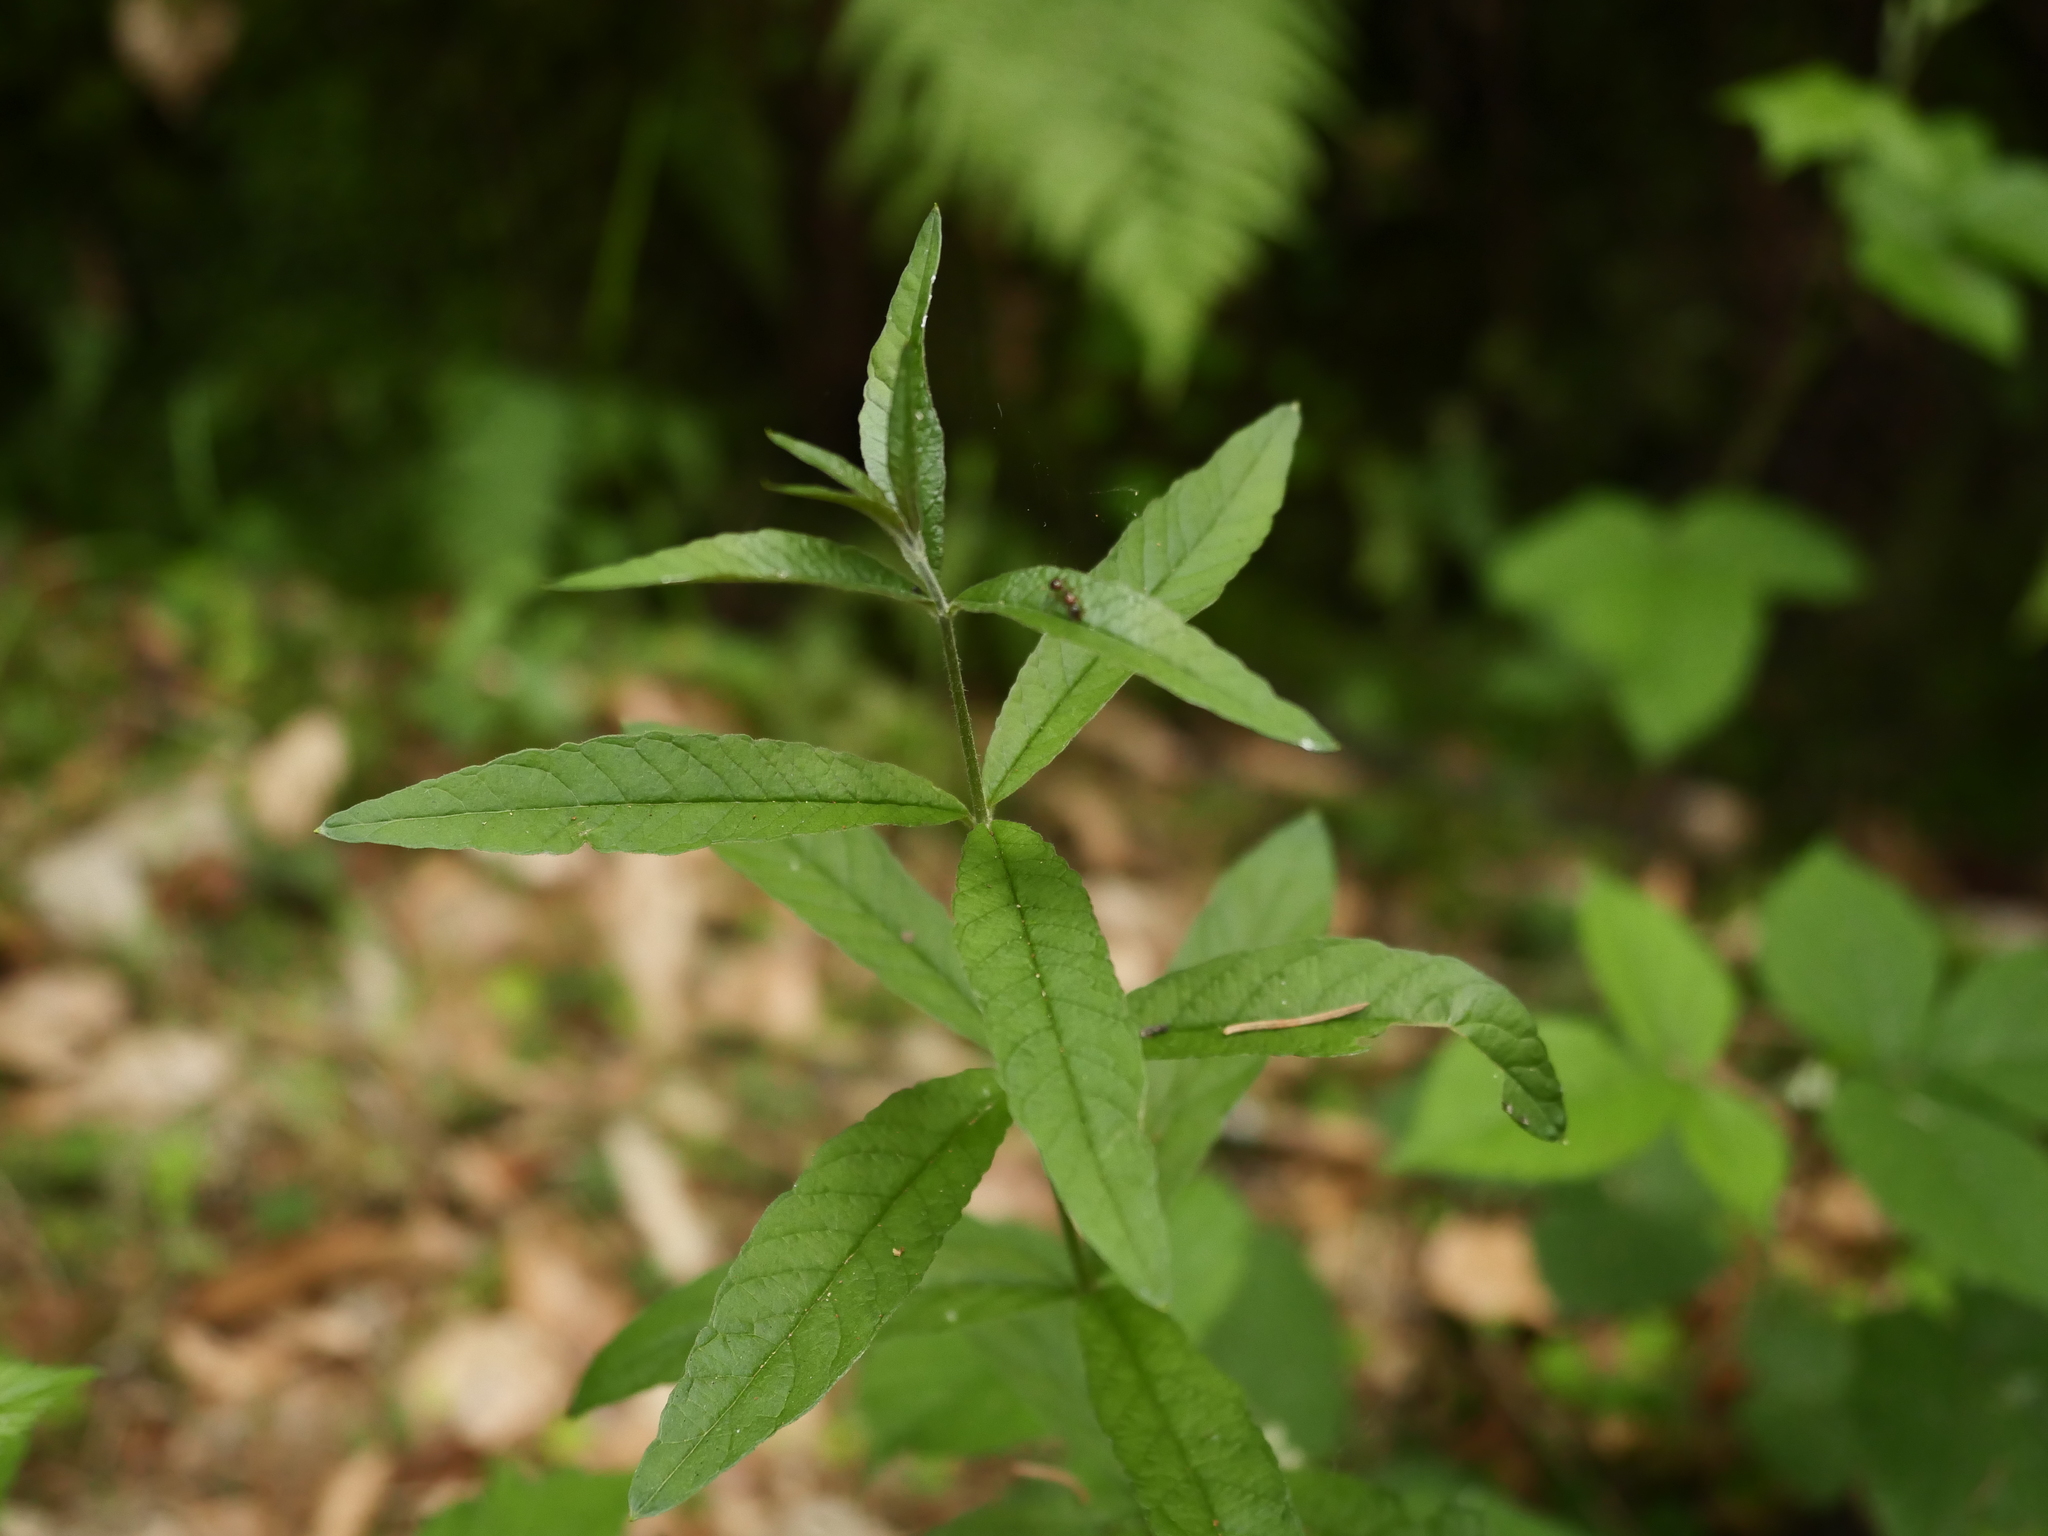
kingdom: Plantae
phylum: Tracheophyta
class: Magnoliopsida
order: Ericales
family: Primulaceae
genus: Lysimachia
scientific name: Lysimachia vulgaris
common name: Yellow loosestrife
